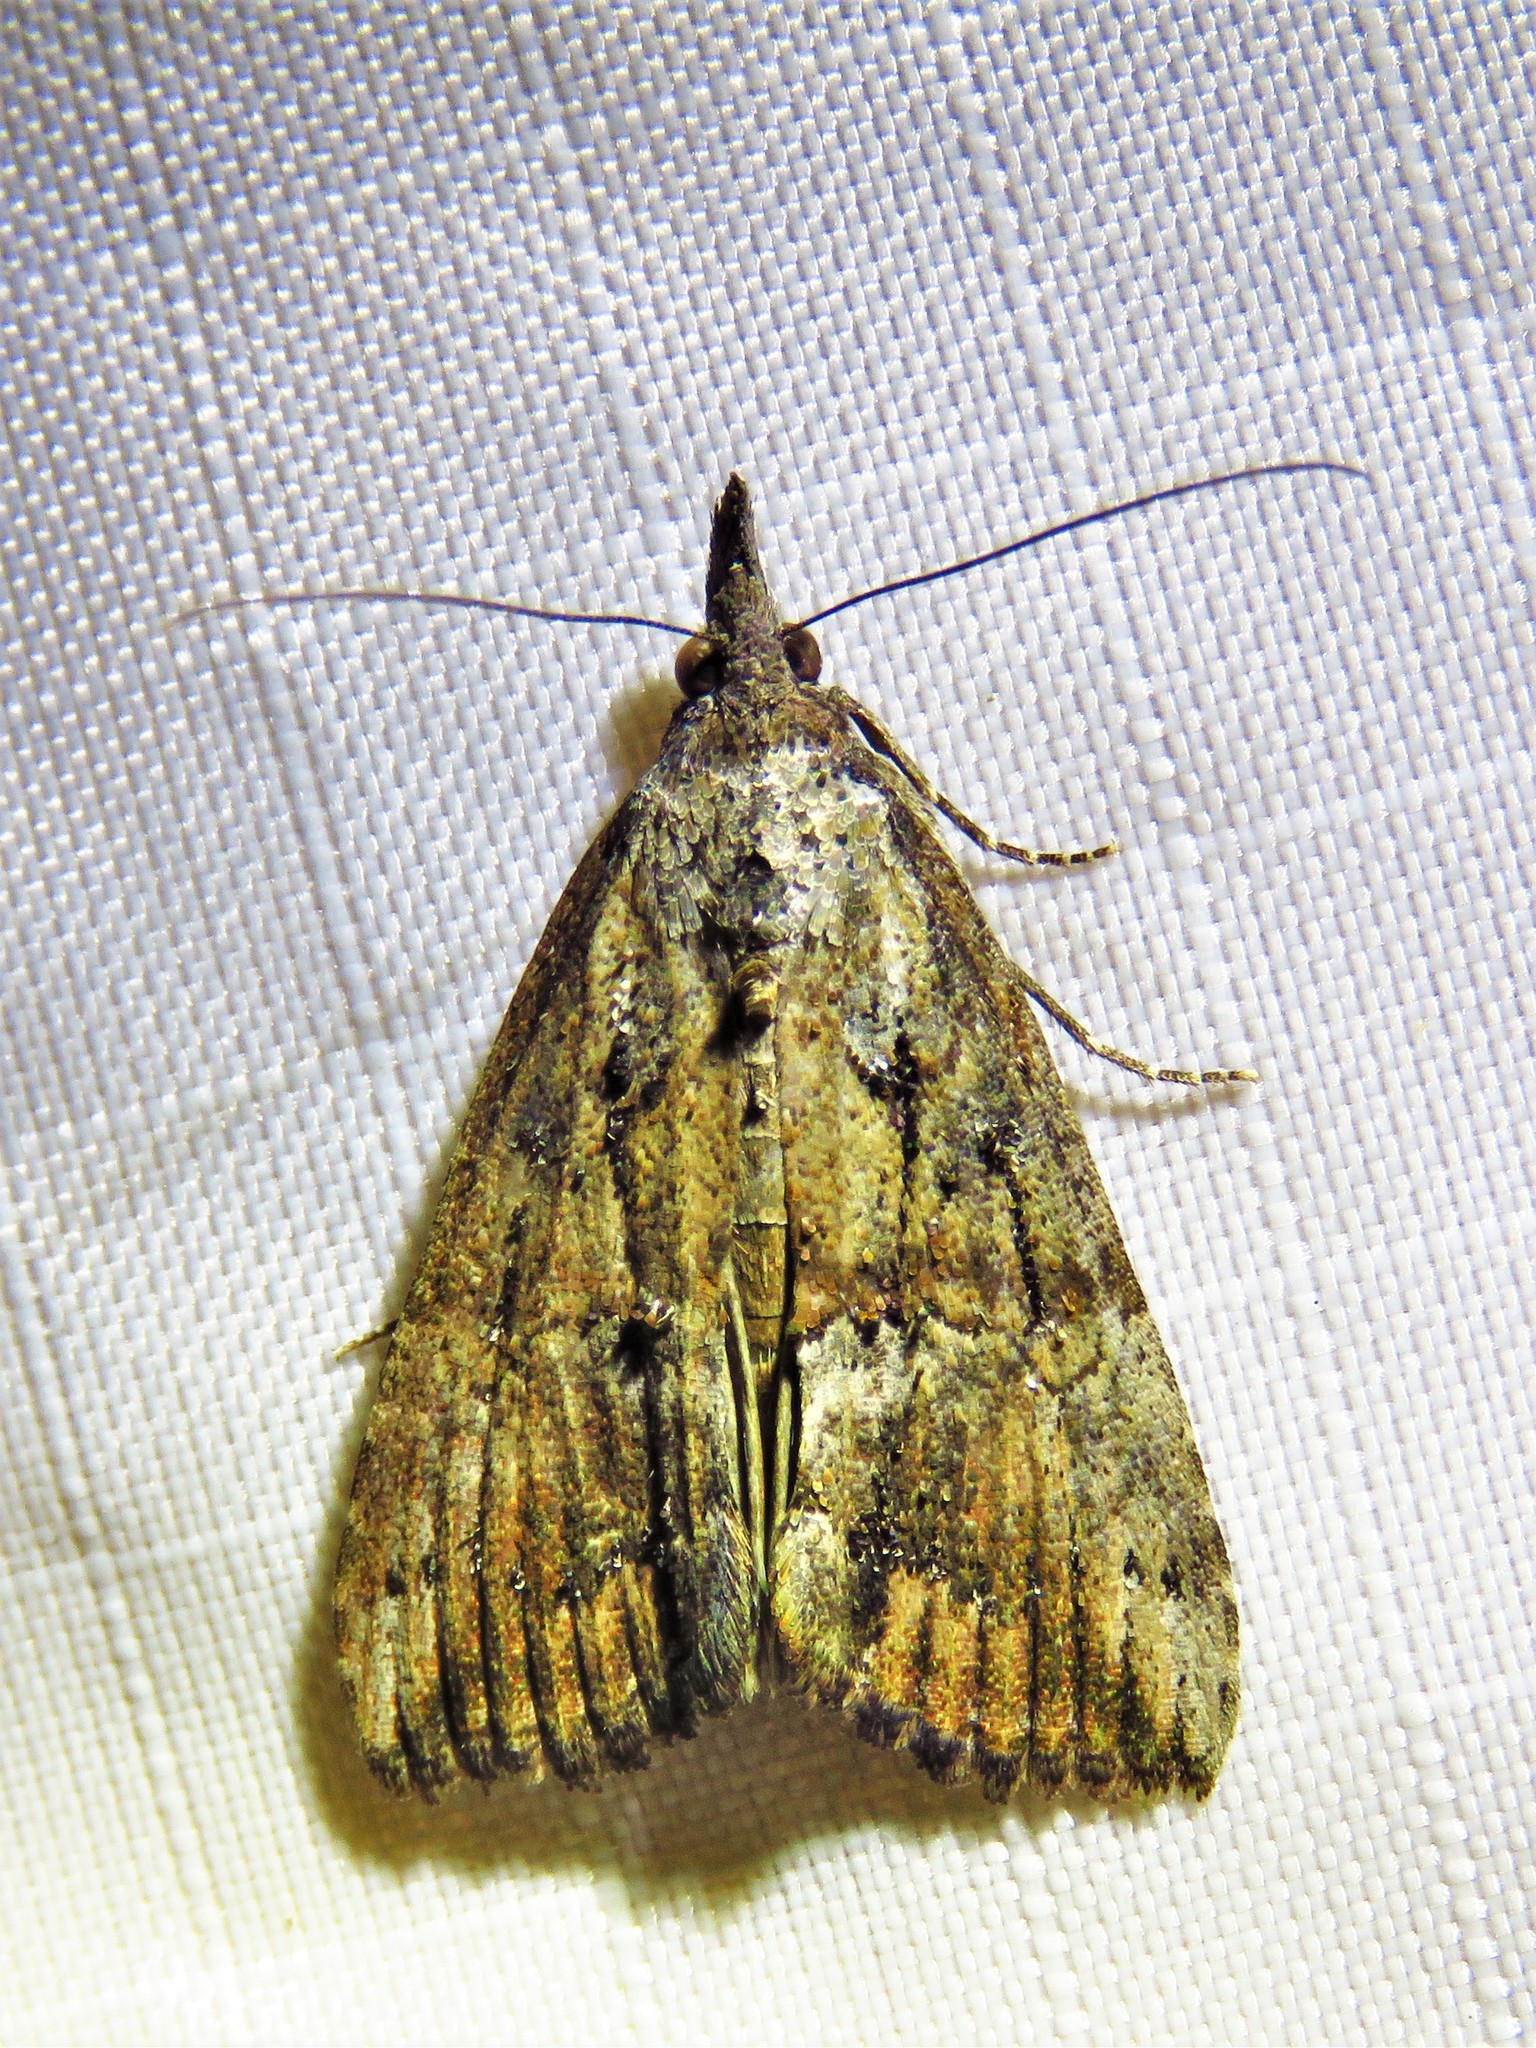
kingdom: Animalia
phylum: Arthropoda
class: Insecta
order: Lepidoptera
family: Erebidae
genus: Hypena
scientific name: Hypena scabra
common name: Green cloverworm
